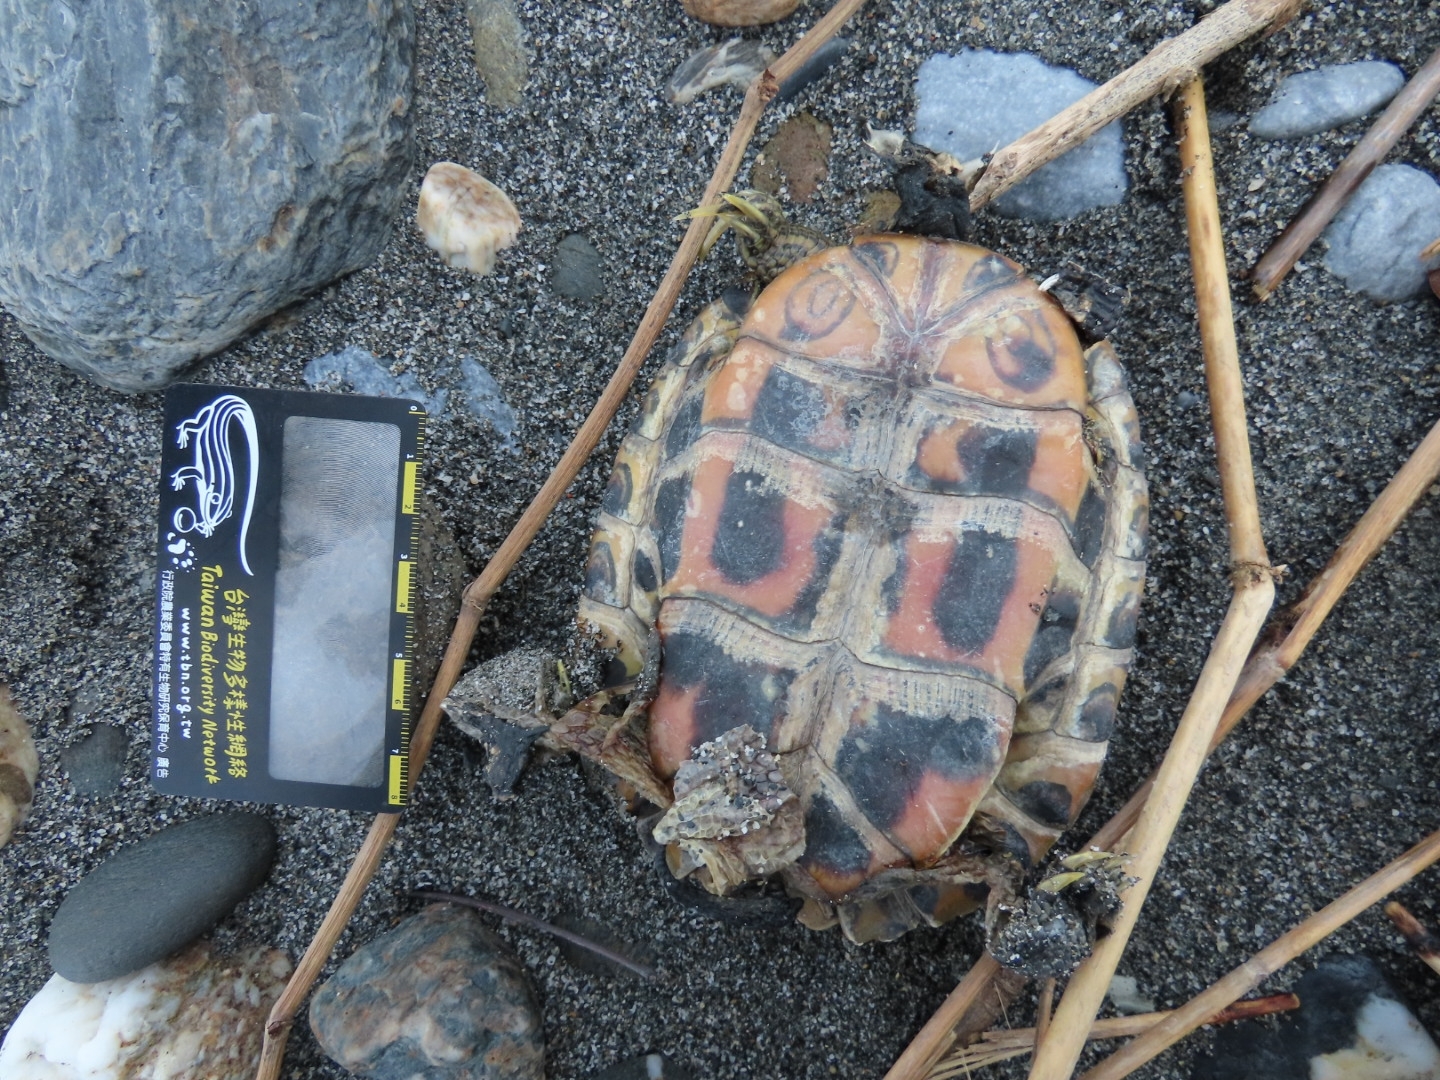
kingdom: Animalia
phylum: Chordata
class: Testudines
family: Emydidae
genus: Trachemys
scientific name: Trachemys scripta
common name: Slider
